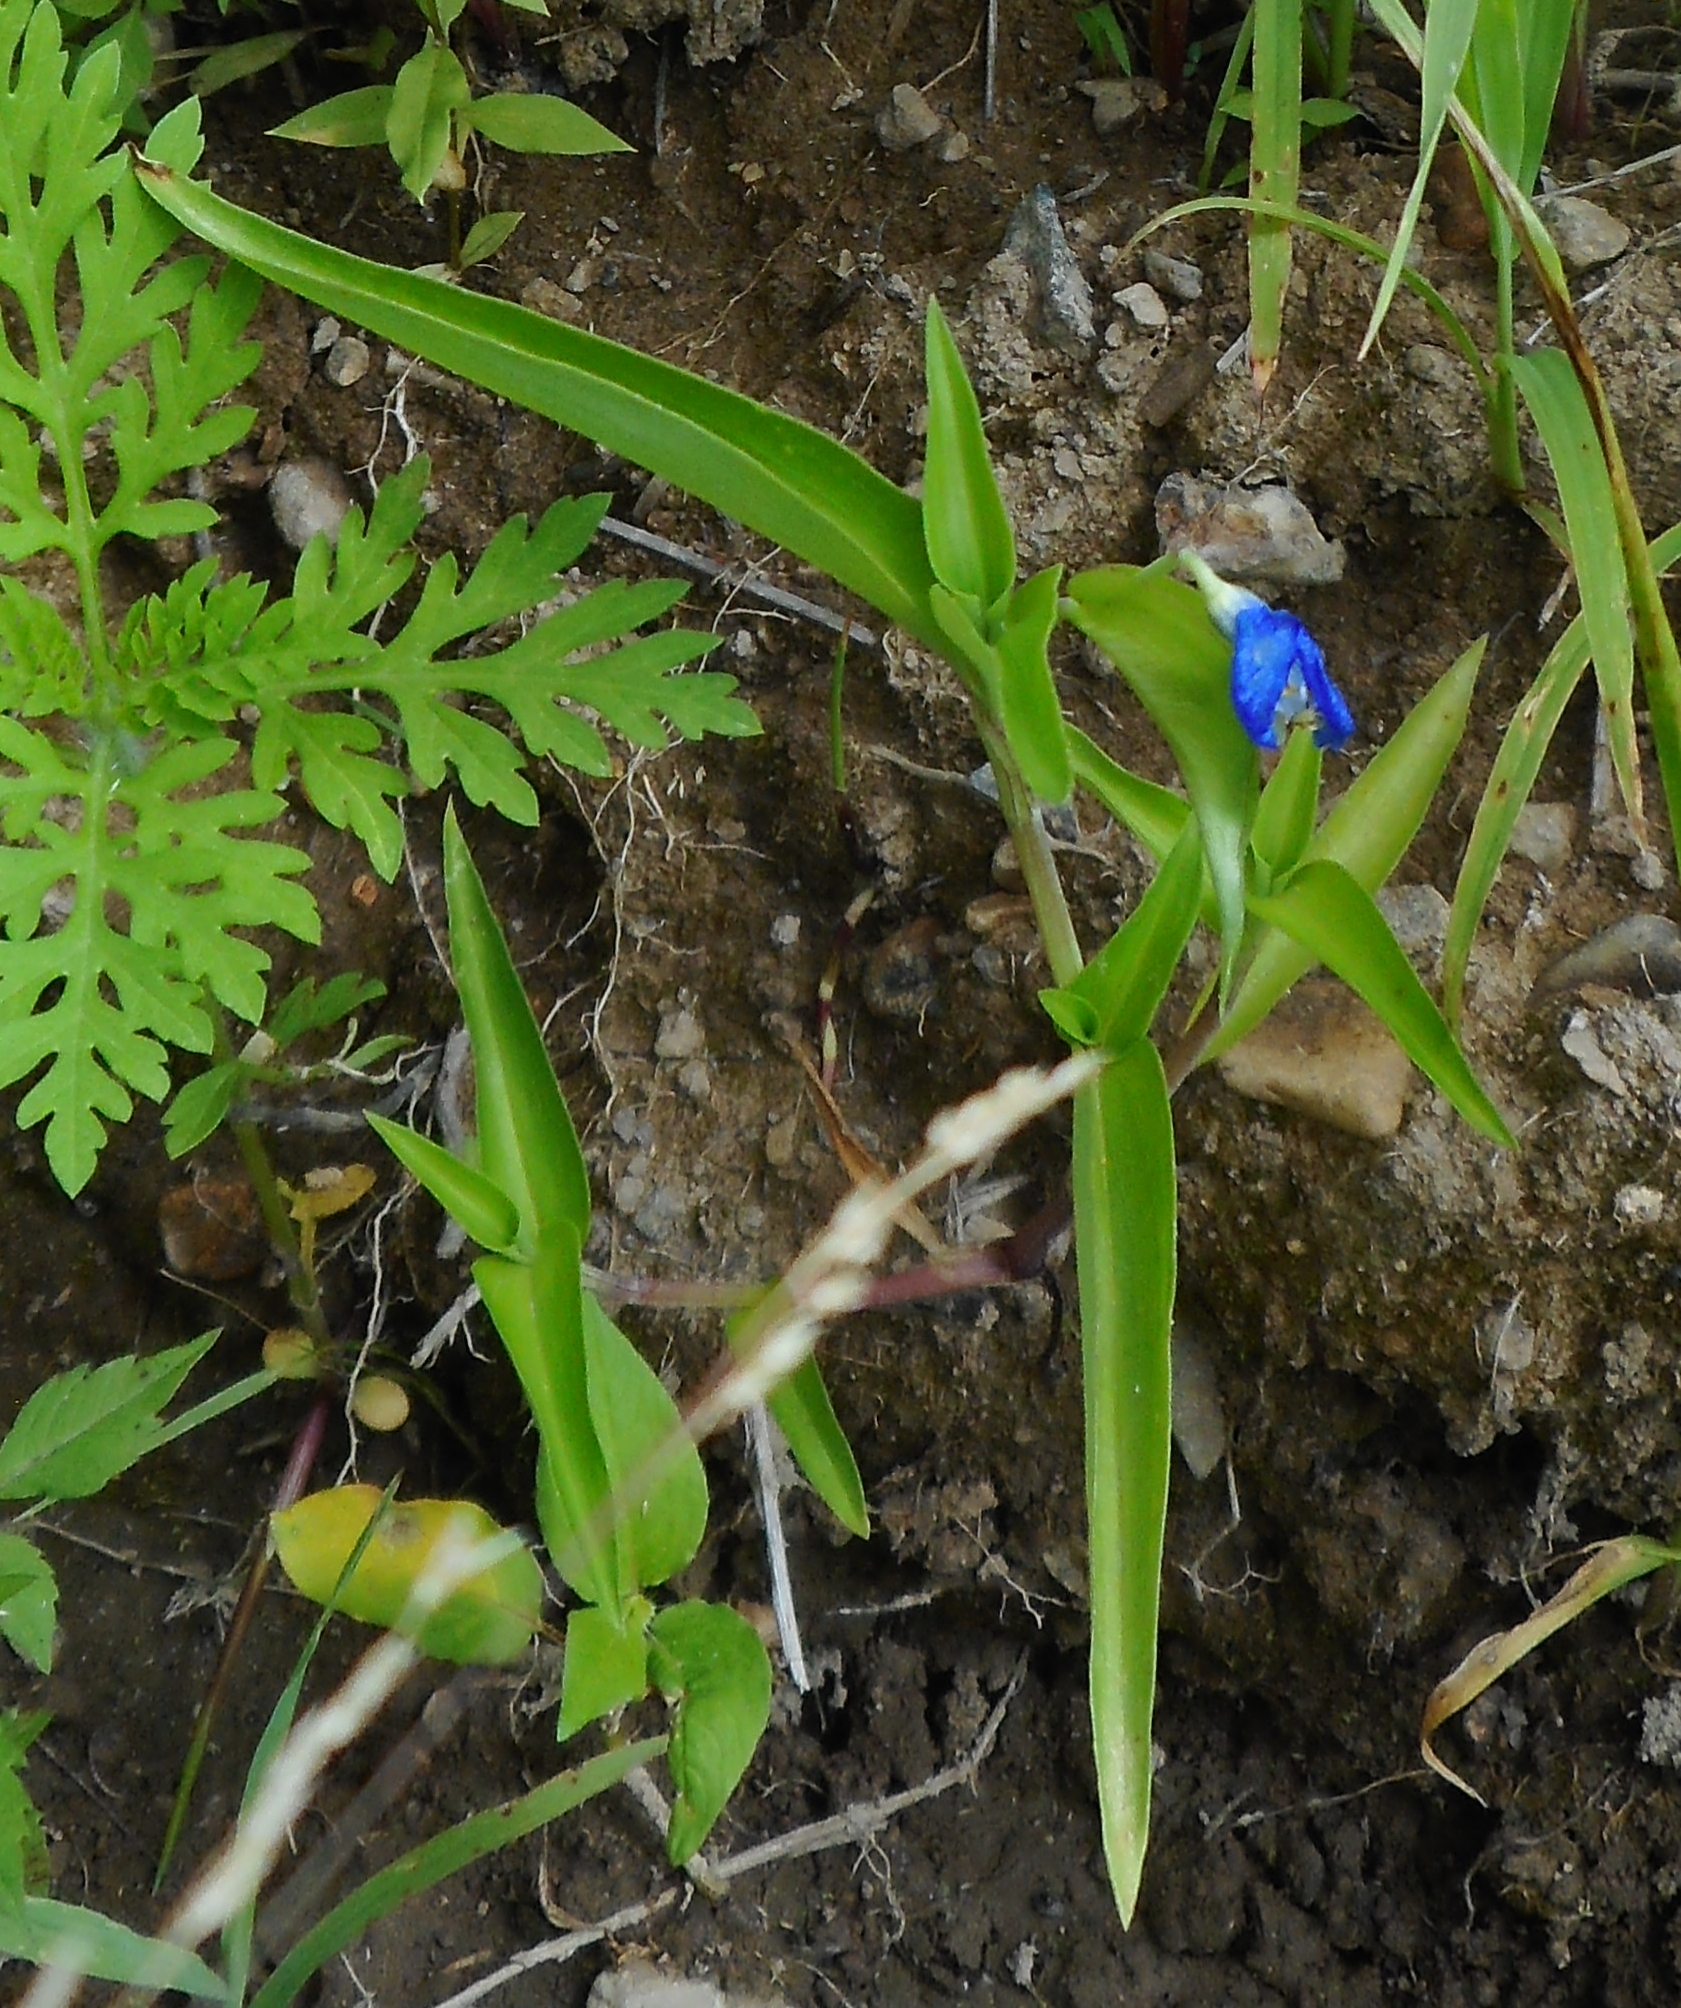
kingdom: Plantae
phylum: Tracheophyta
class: Liliopsida
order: Commelinales
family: Commelinaceae
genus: Commelina
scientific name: Commelina communis
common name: Asiatic dayflower
